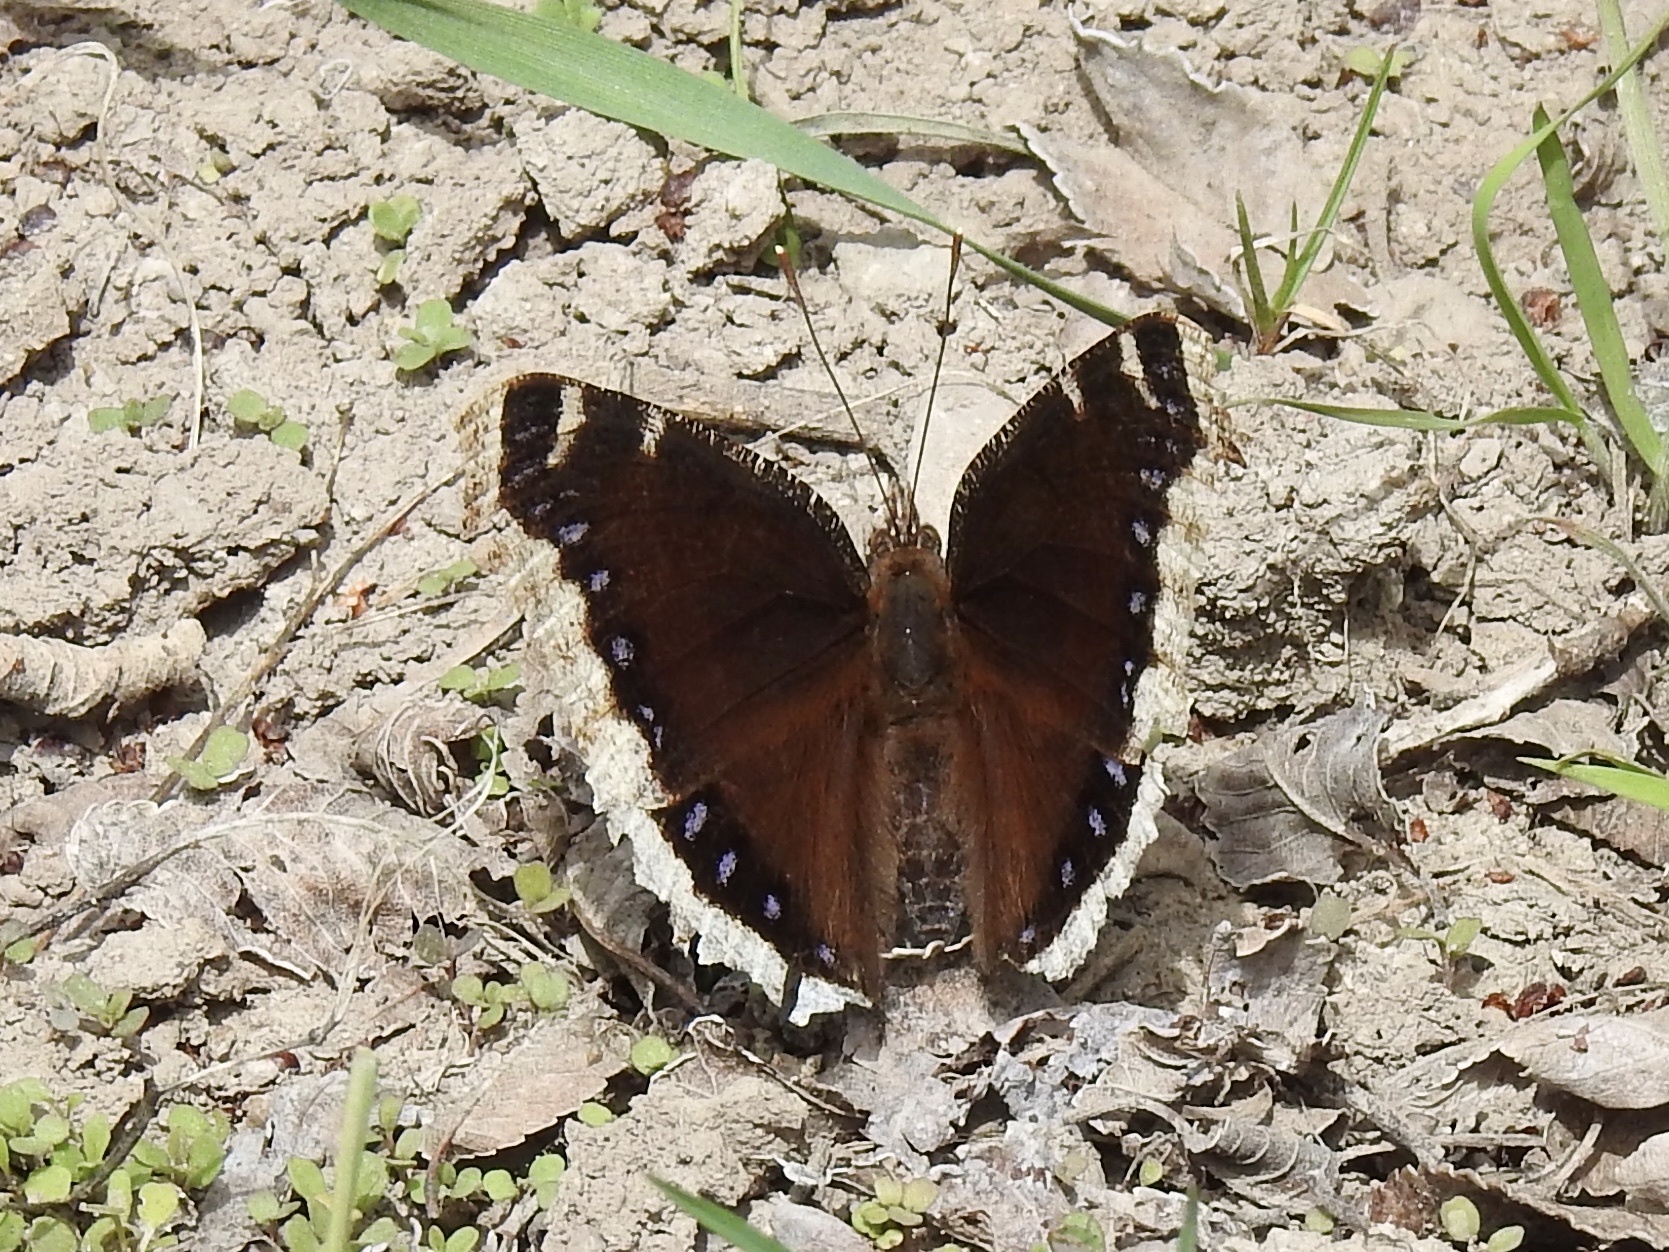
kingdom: Animalia
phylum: Arthropoda
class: Insecta
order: Lepidoptera
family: Nymphalidae
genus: Nymphalis
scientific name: Nymphalis antiopa
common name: Camberwell beauty
